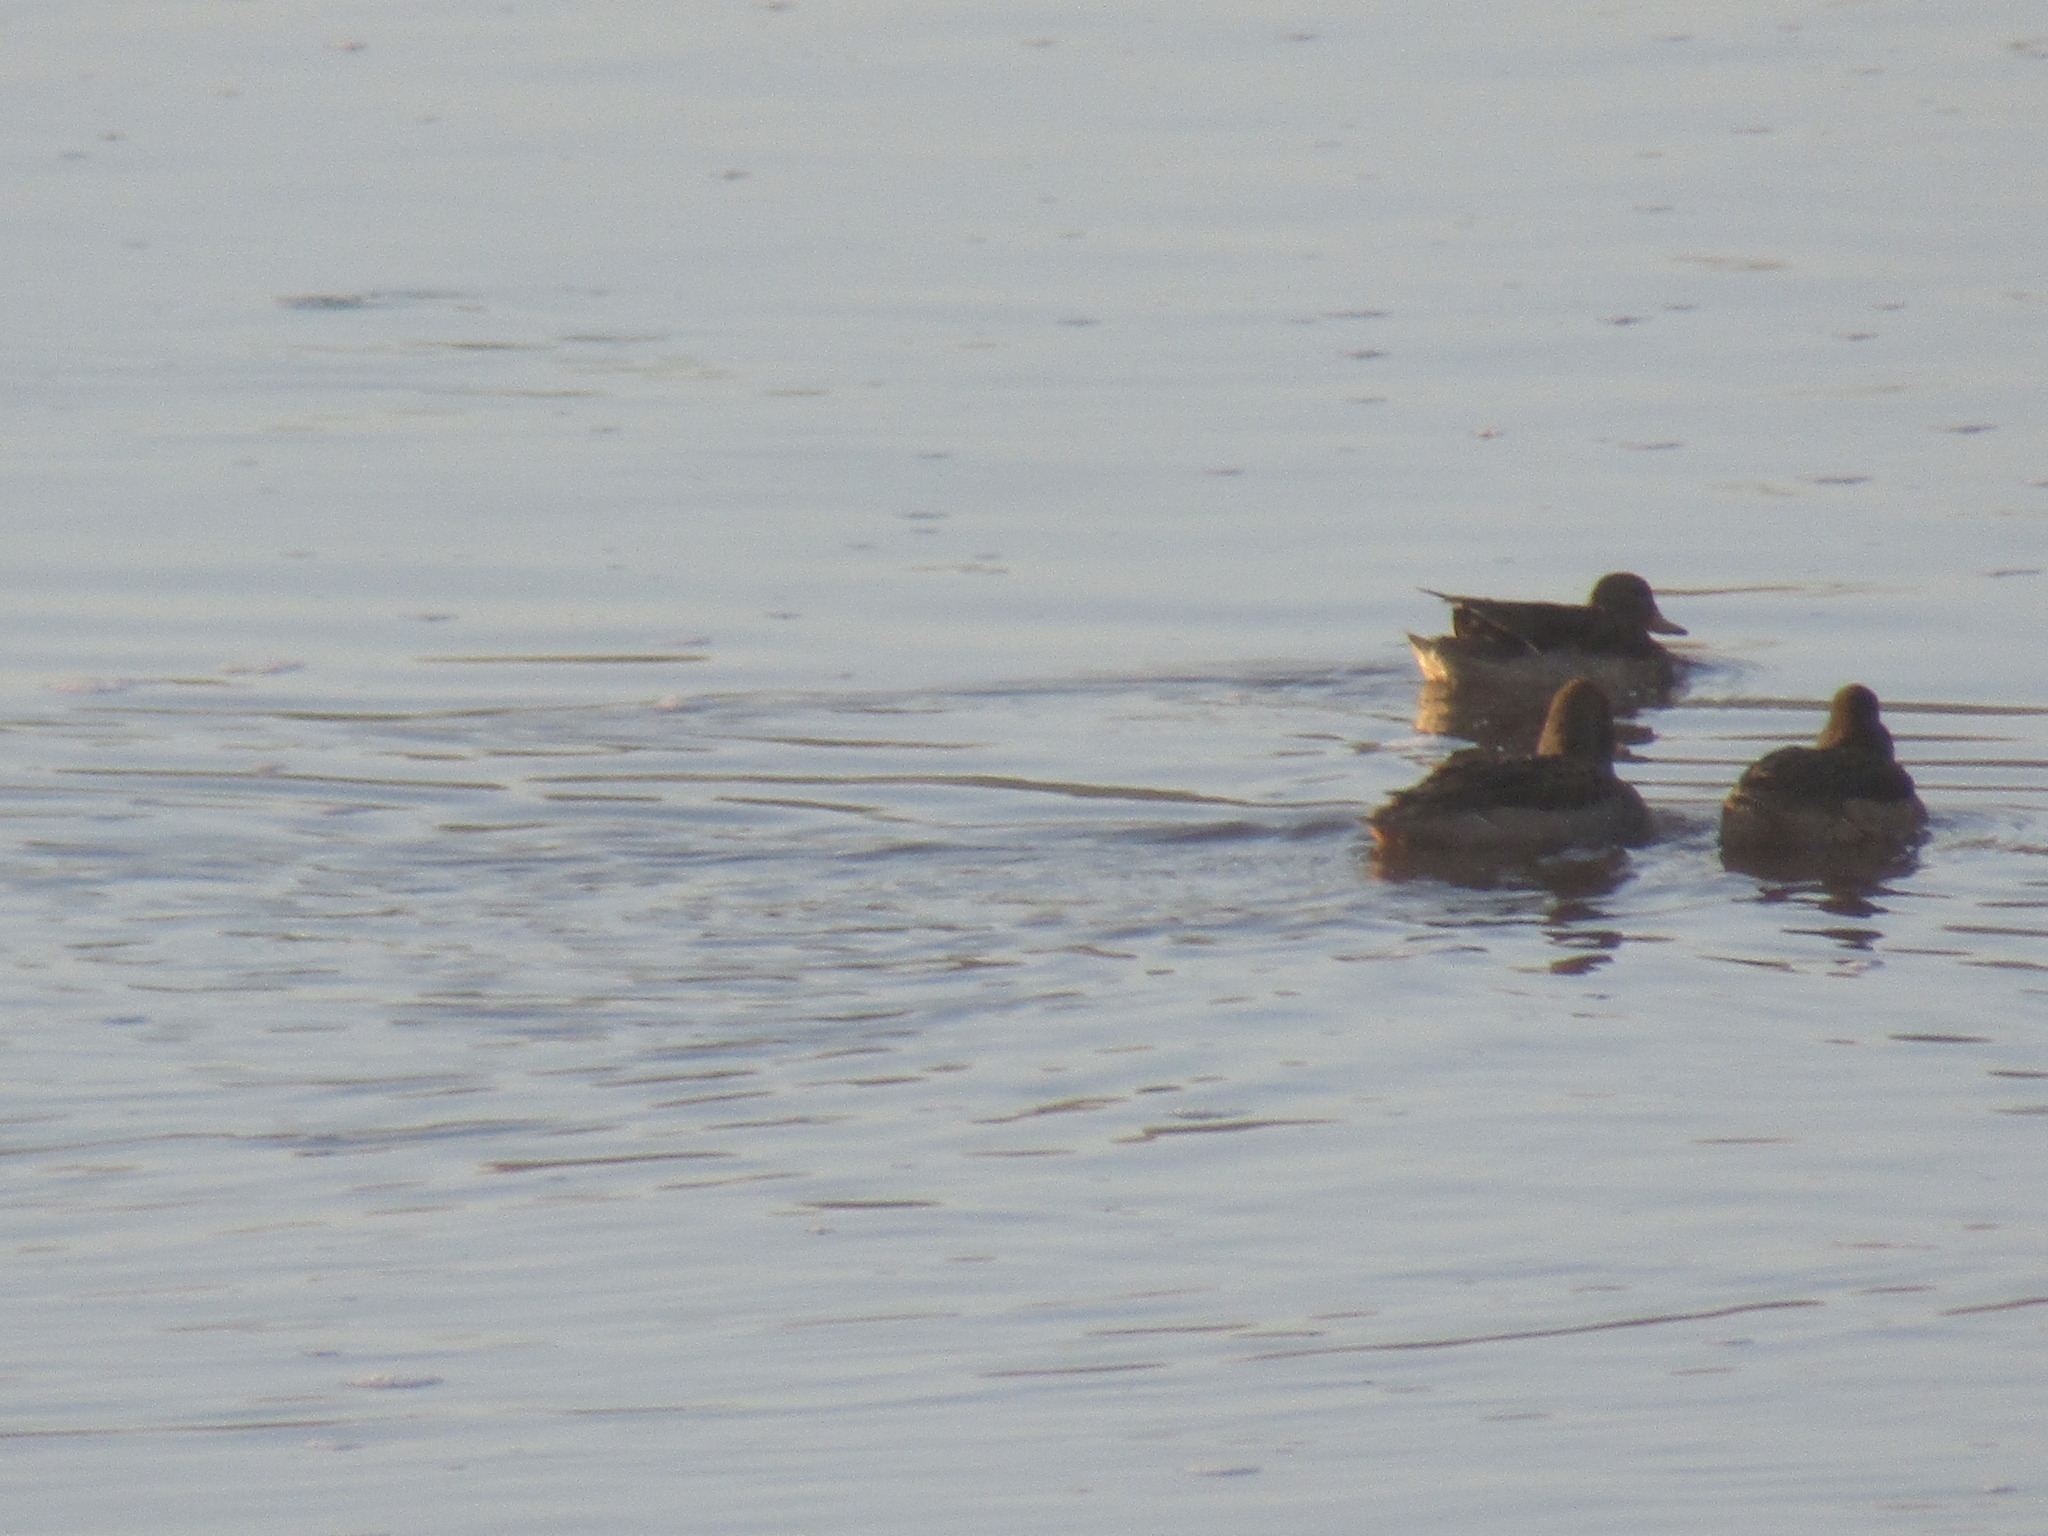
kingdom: Animalia
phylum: Chordata
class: Aves
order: Anseriformes
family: Anatidae
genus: Anas
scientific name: Anas flavirostris
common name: Yellow-billed teal
